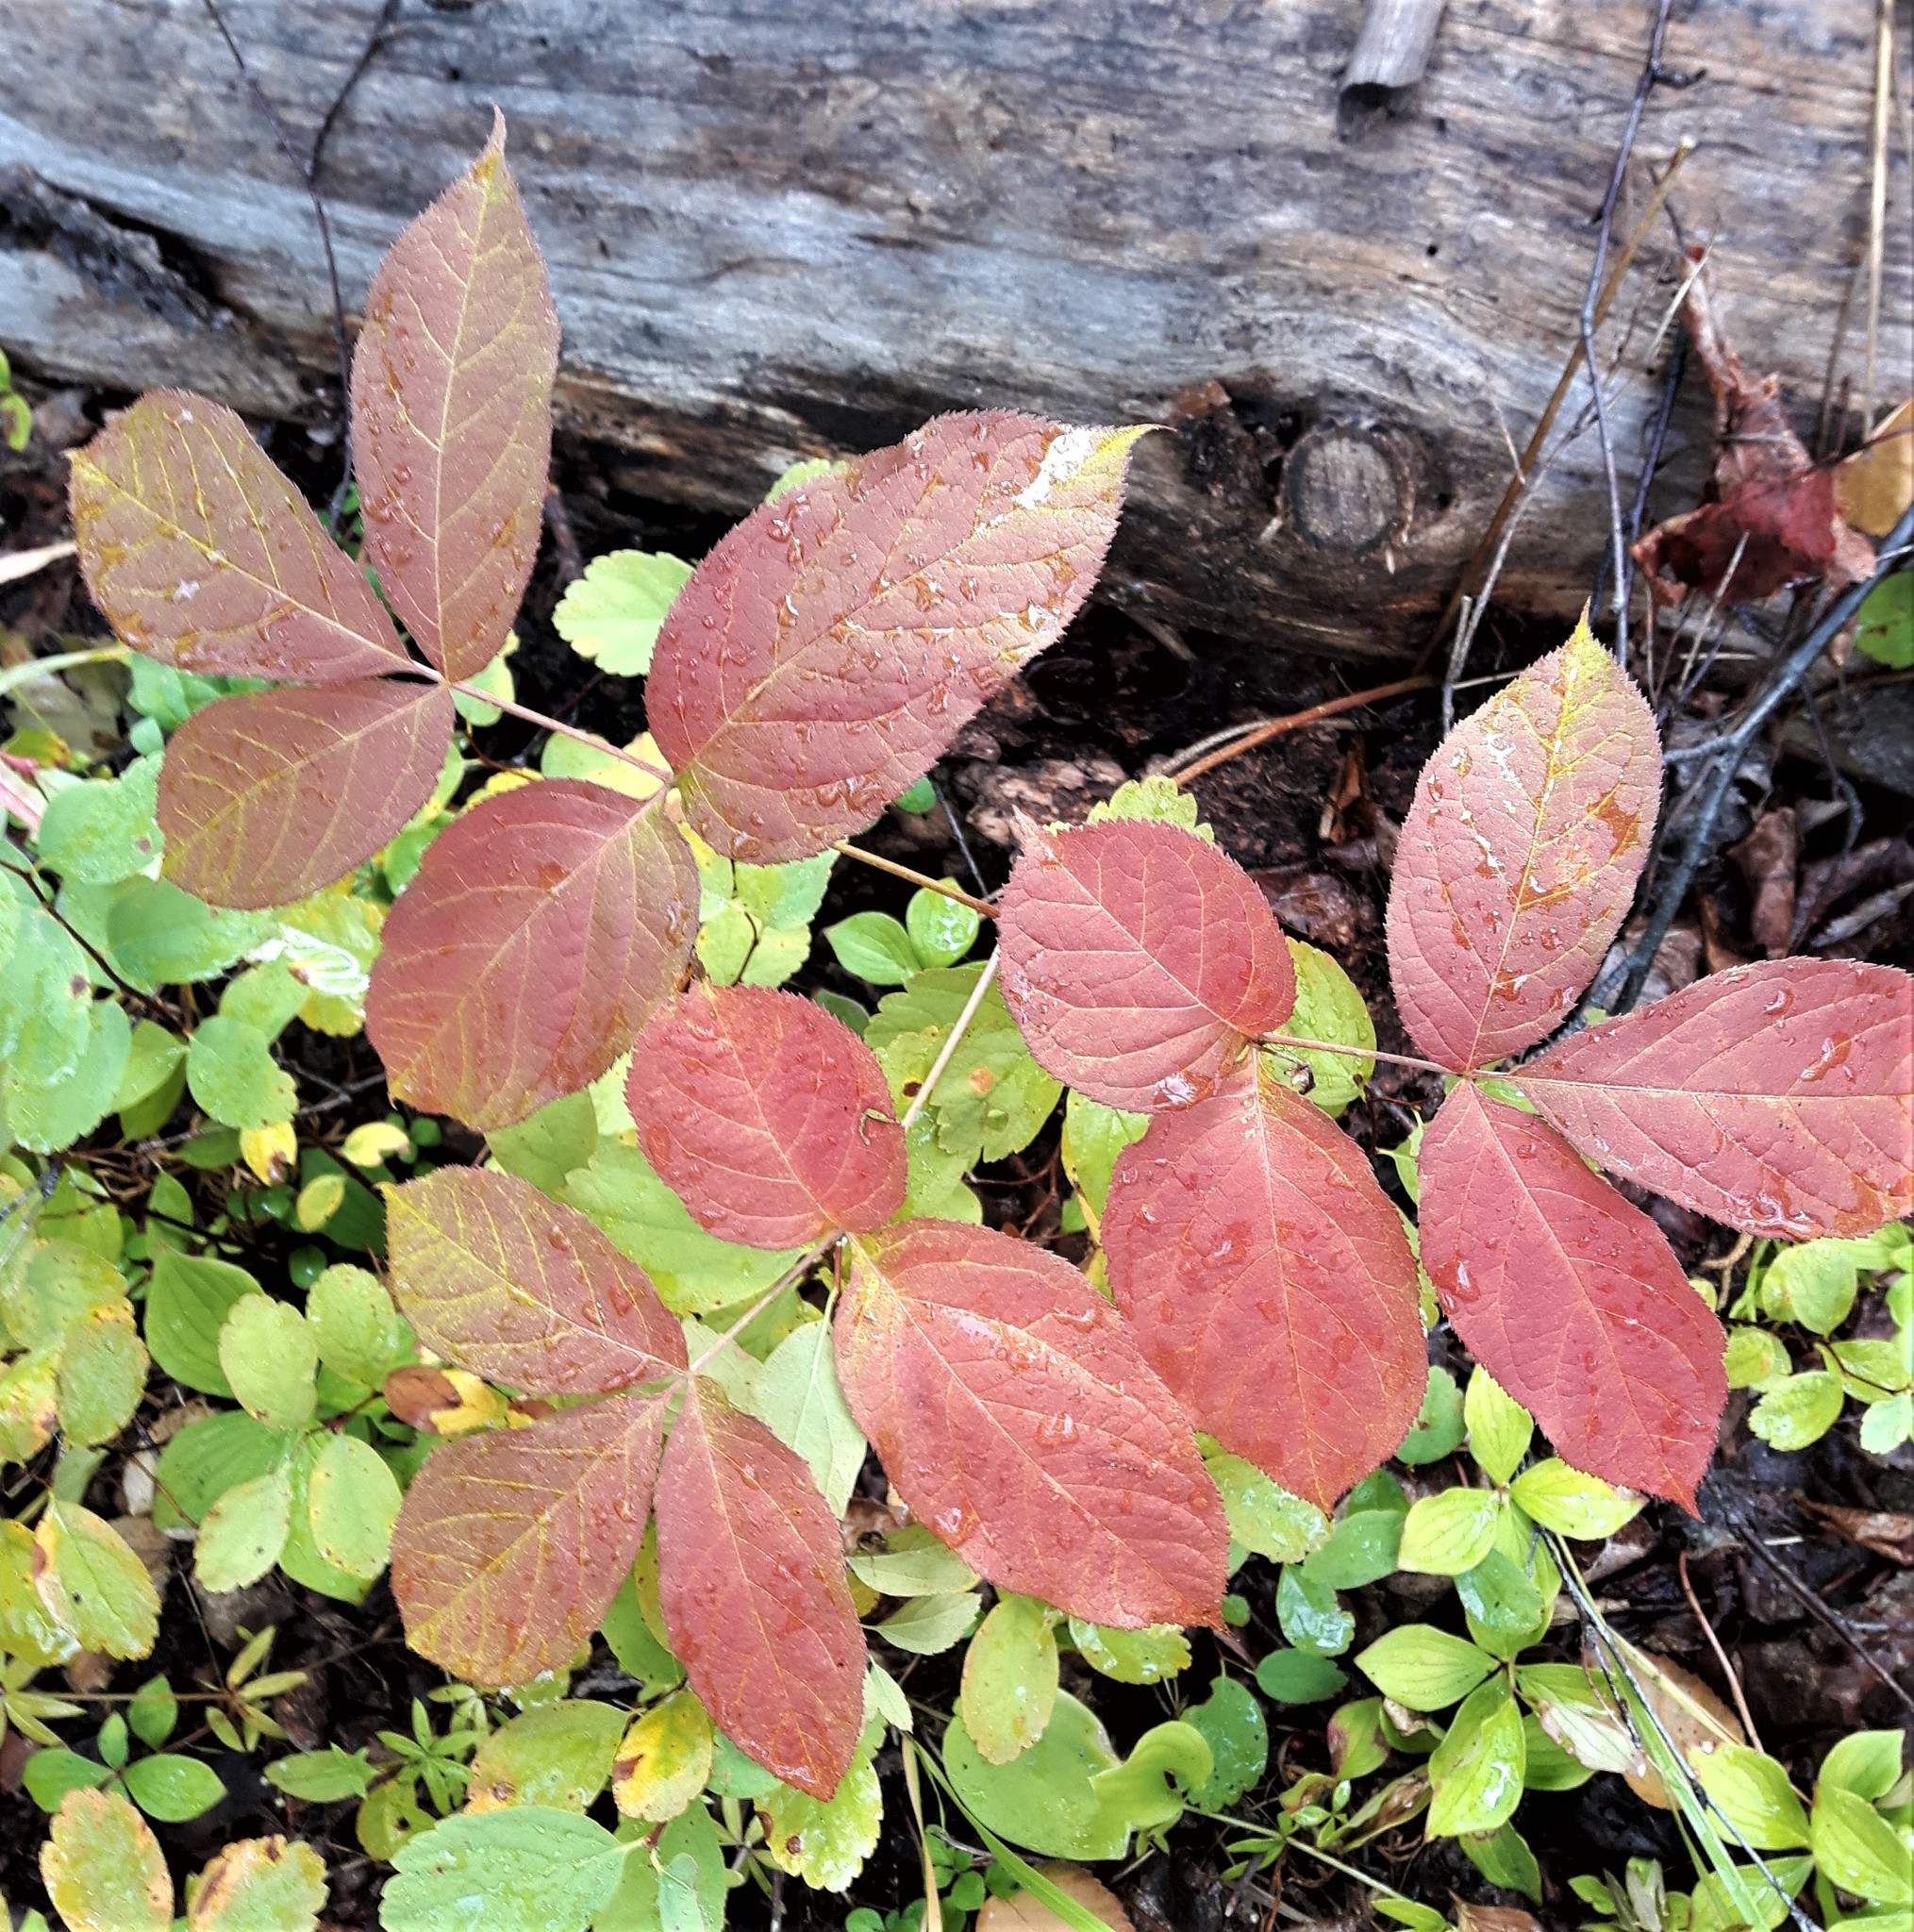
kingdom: Plantae
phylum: Tracheophyta
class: Magnoliopsida
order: Apiales
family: Araliaceae
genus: Aralia
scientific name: Aralia nudicaulis
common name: Wild sarsaparilla
